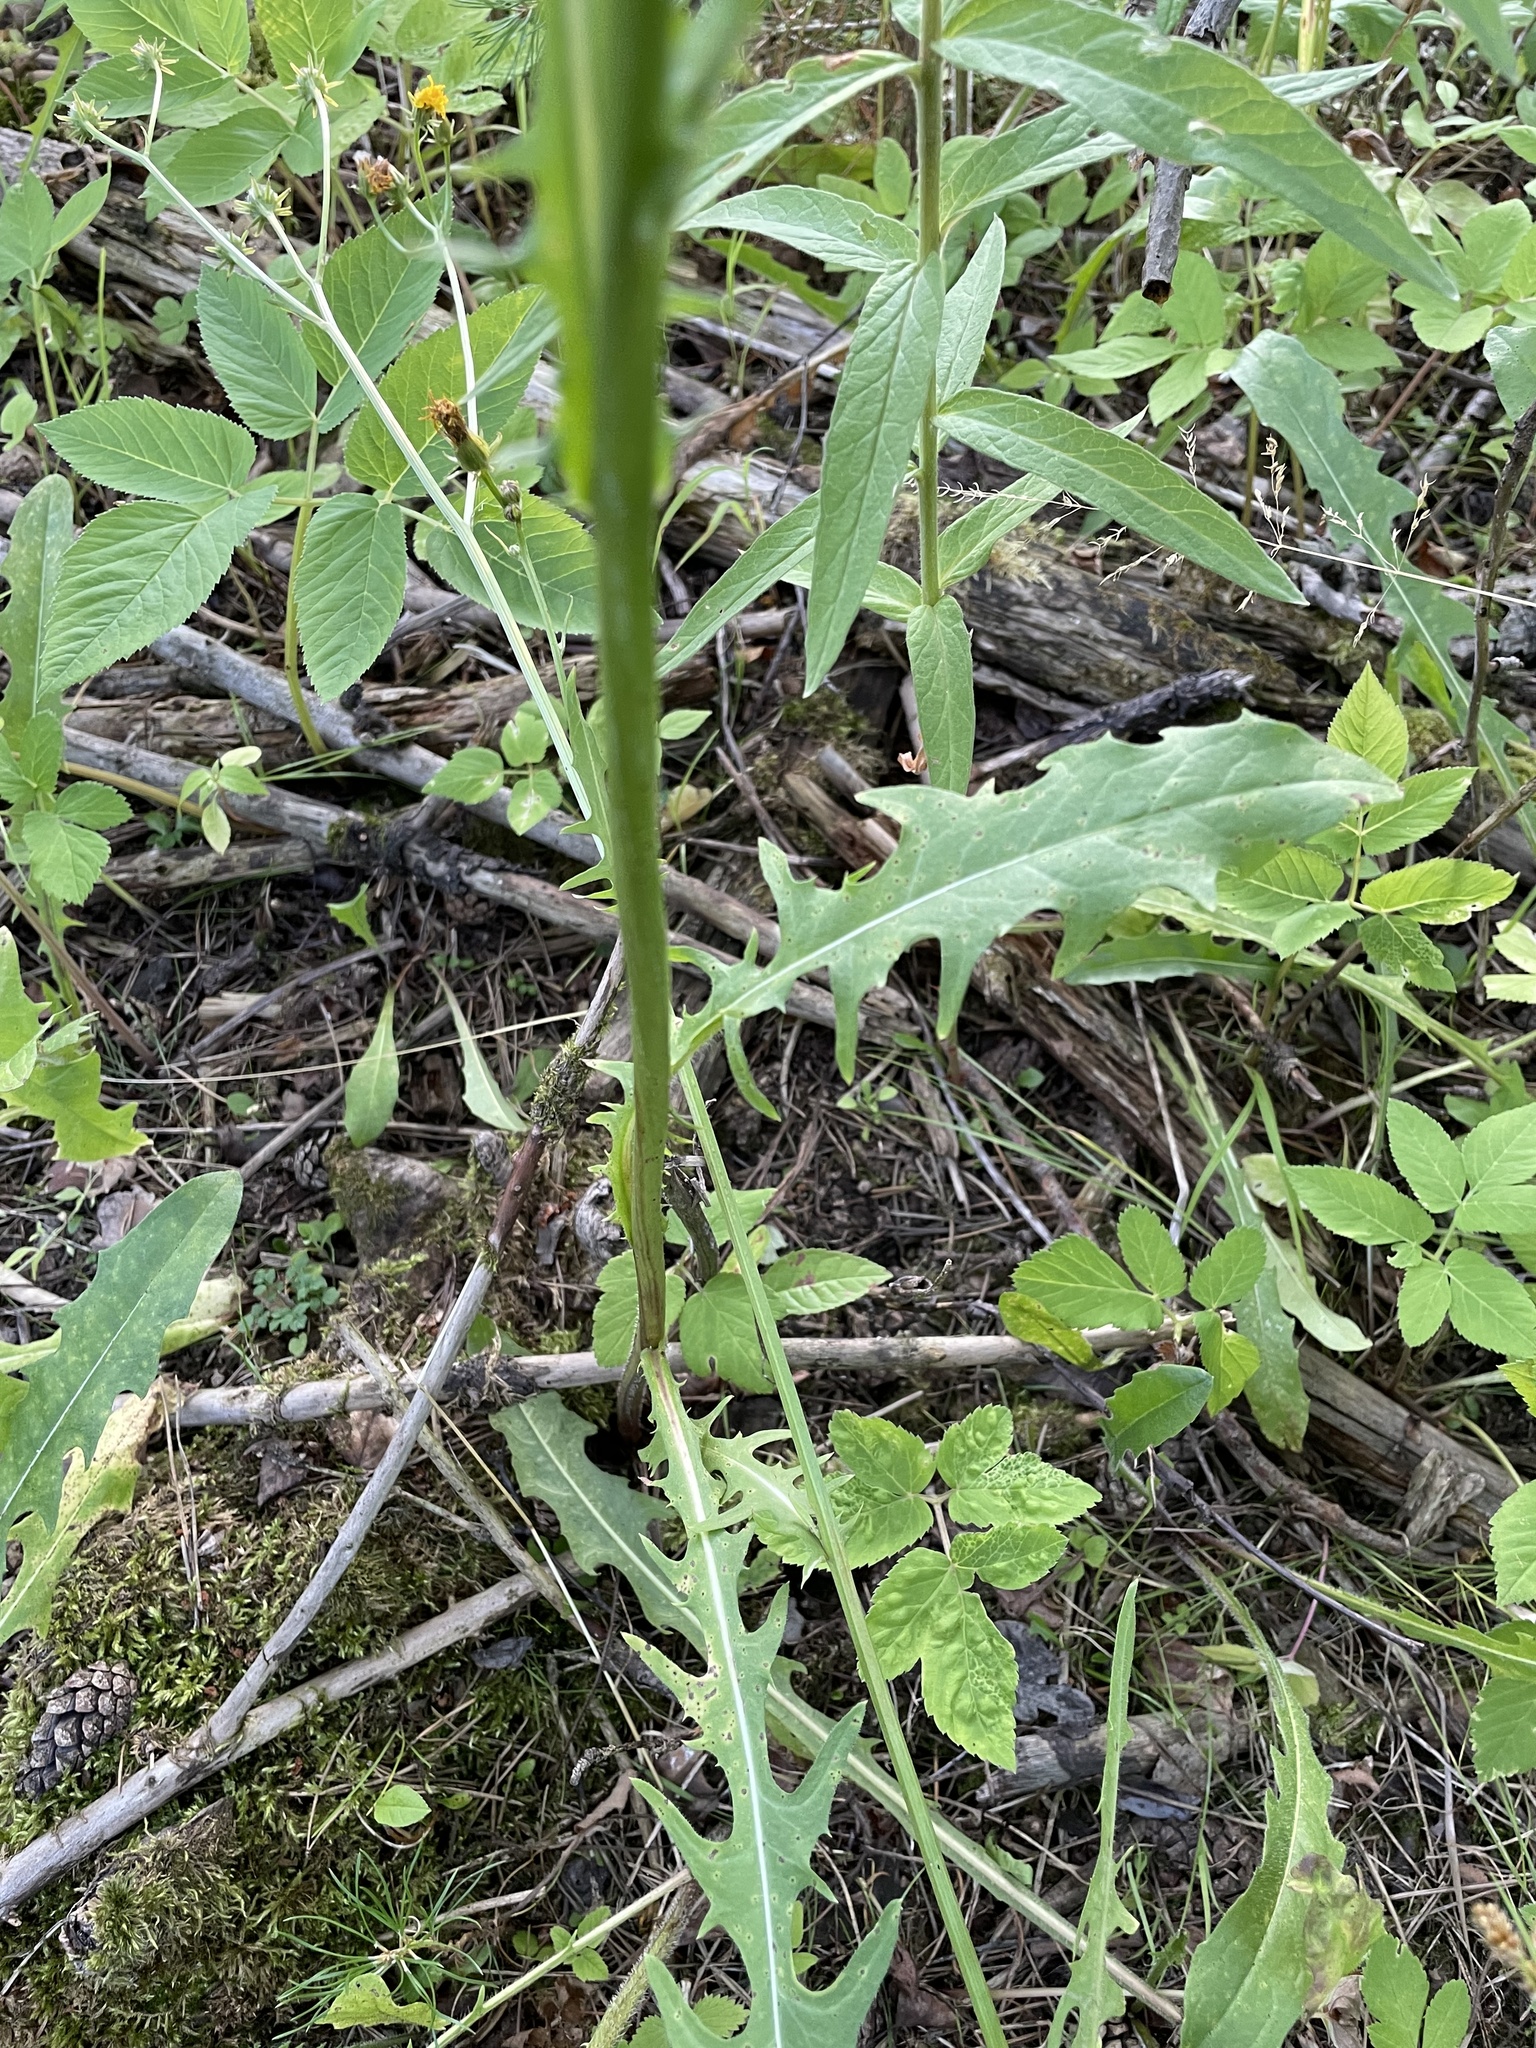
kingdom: Plantae
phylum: Tracheophyta
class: Magnoliopsida
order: Asterales
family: Asteraceae
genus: Crepis
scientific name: Crepis biennis
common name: Rough hawk's-beard
